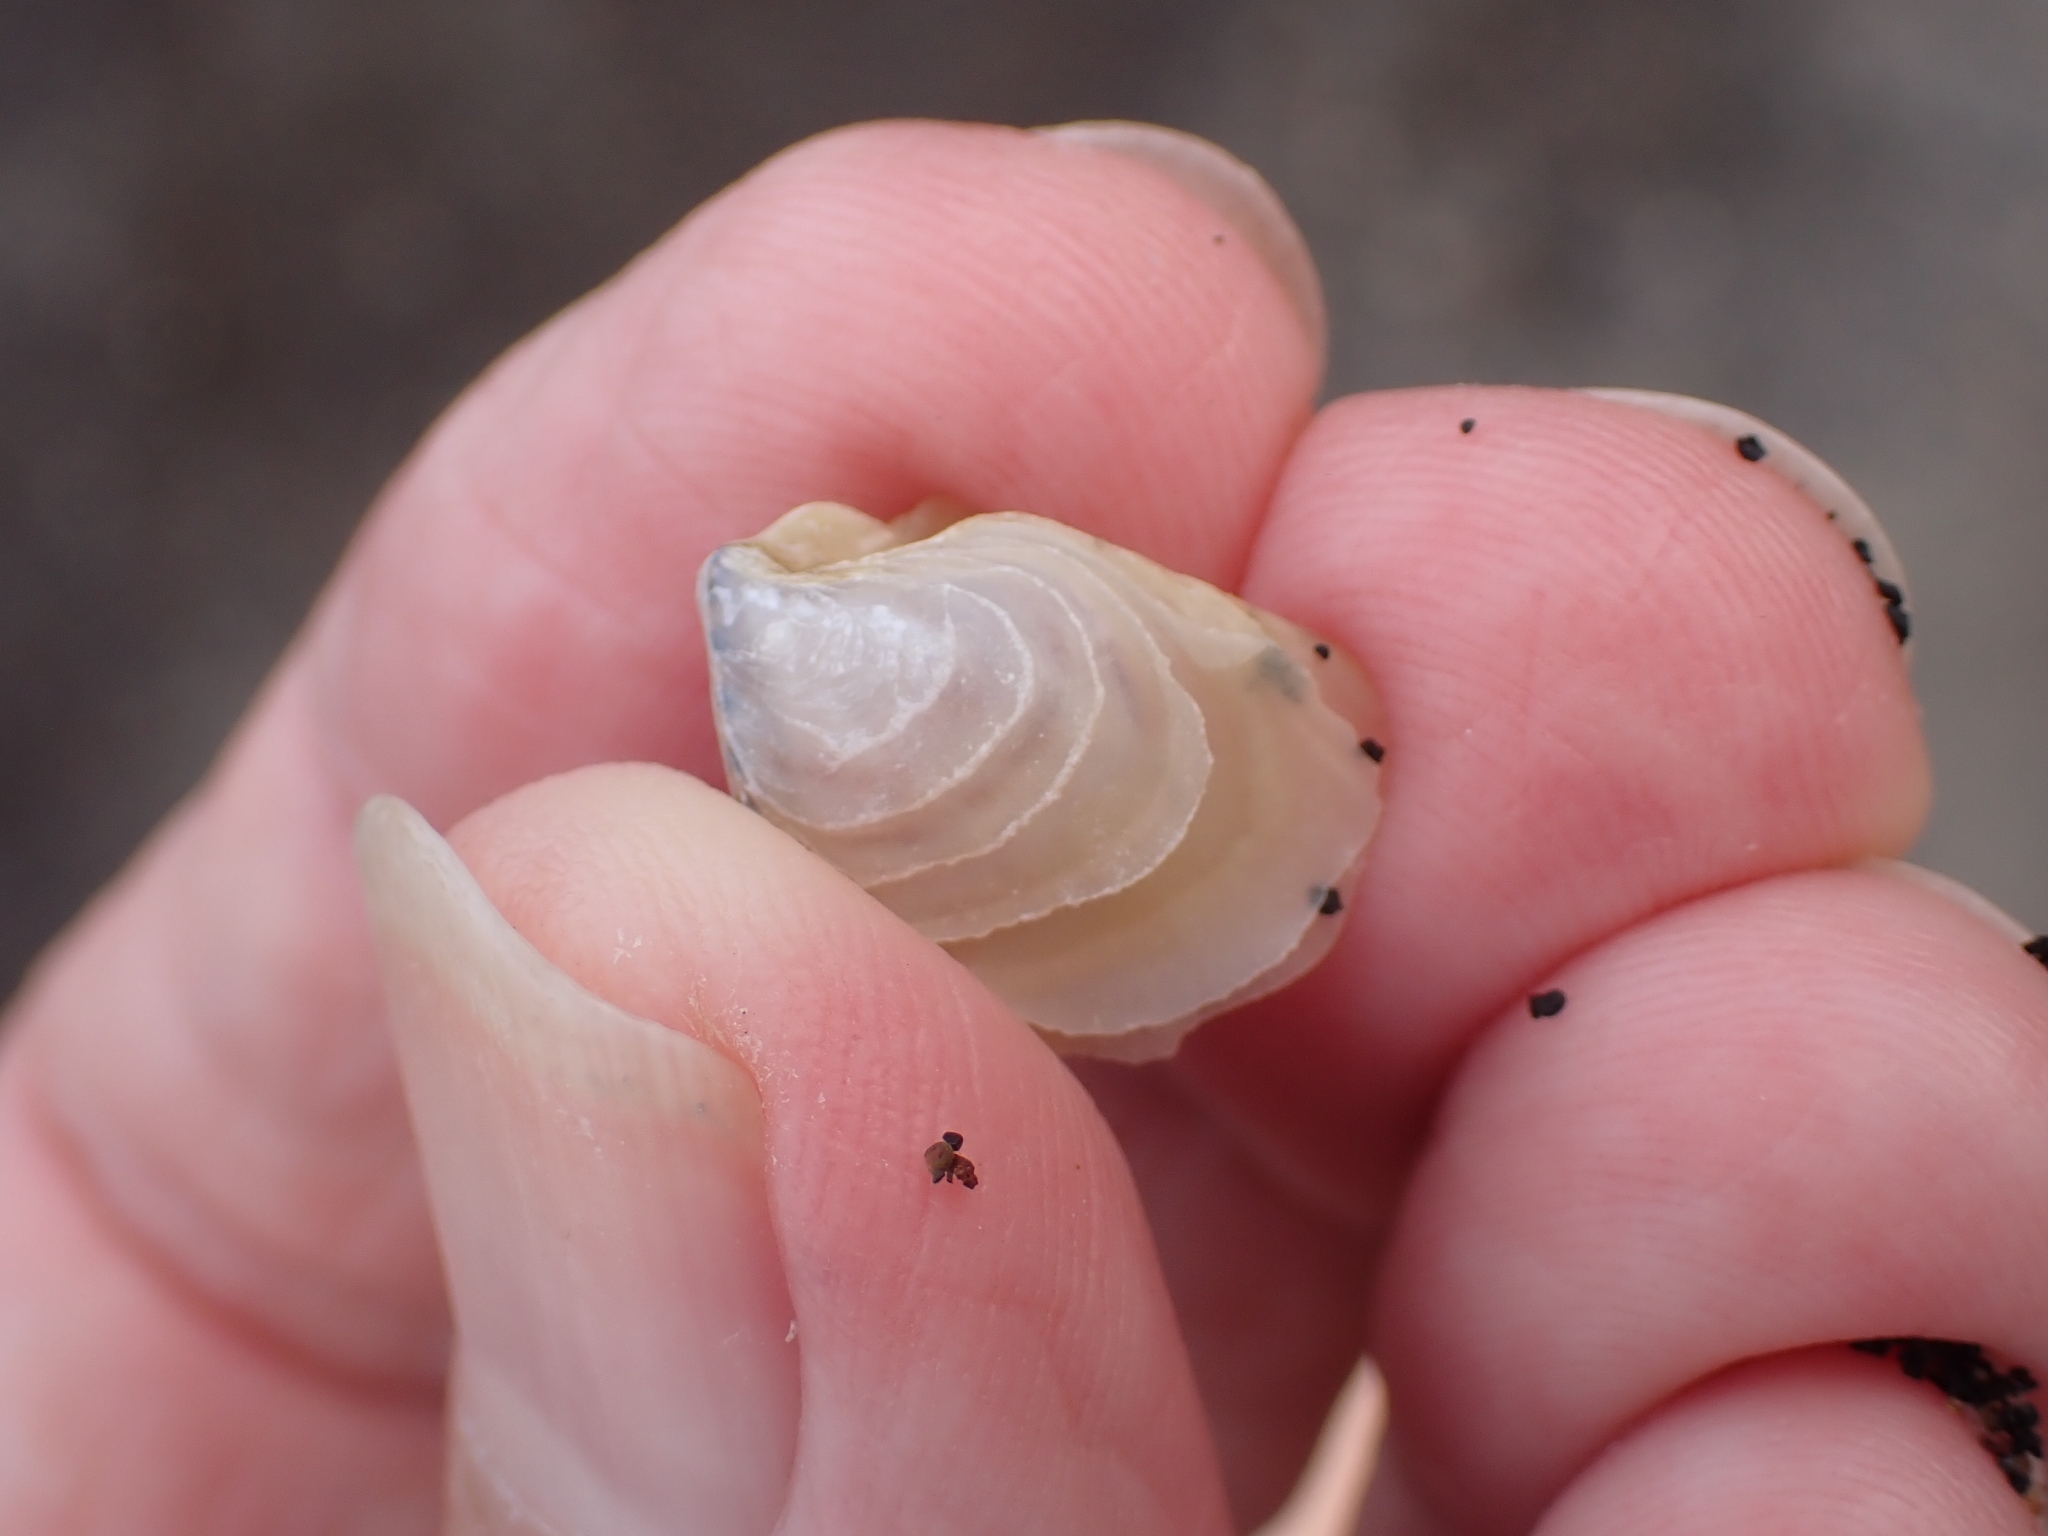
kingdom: Animalia
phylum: Mollusca
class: Bivalvia
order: Venerida
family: Veneridae
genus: Irus
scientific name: Irus irus
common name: Irus clam
